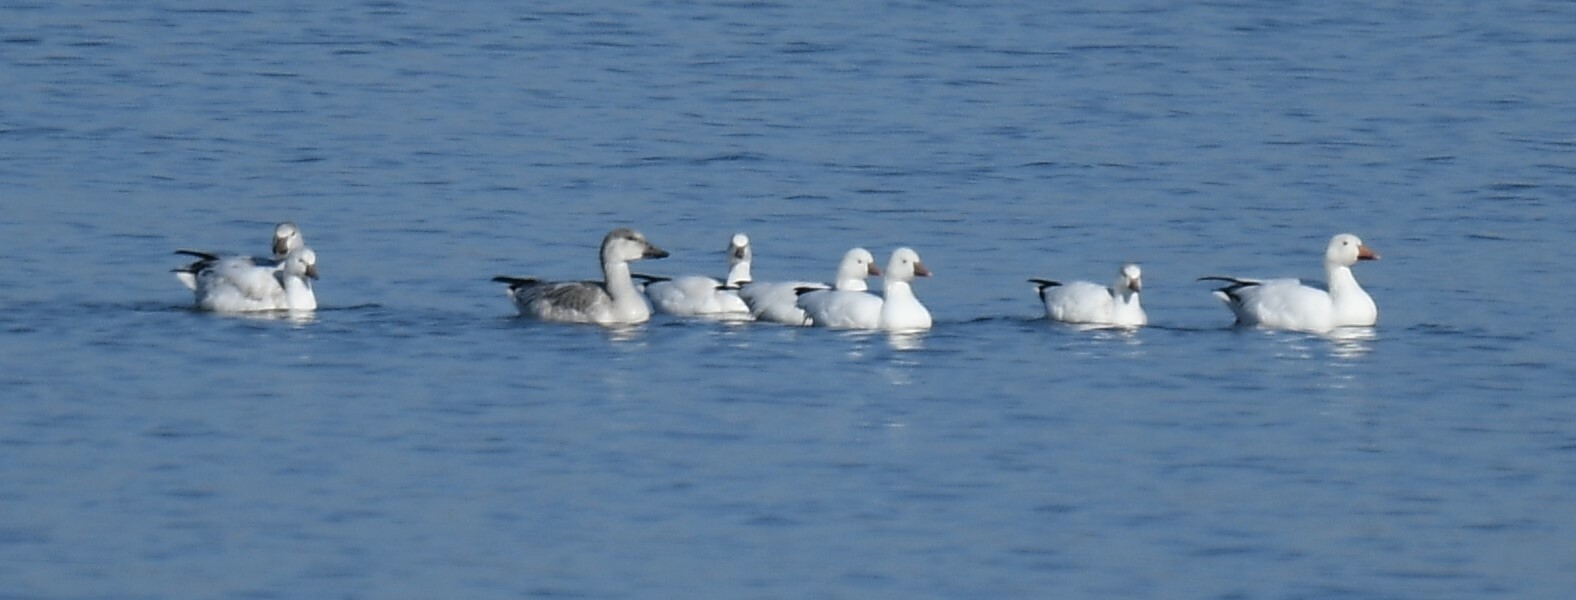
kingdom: Animalia
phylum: Chordata
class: Aves
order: Anseriformes
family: Anatidae
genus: Anser
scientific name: Anser rossii
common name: Ross's goose
